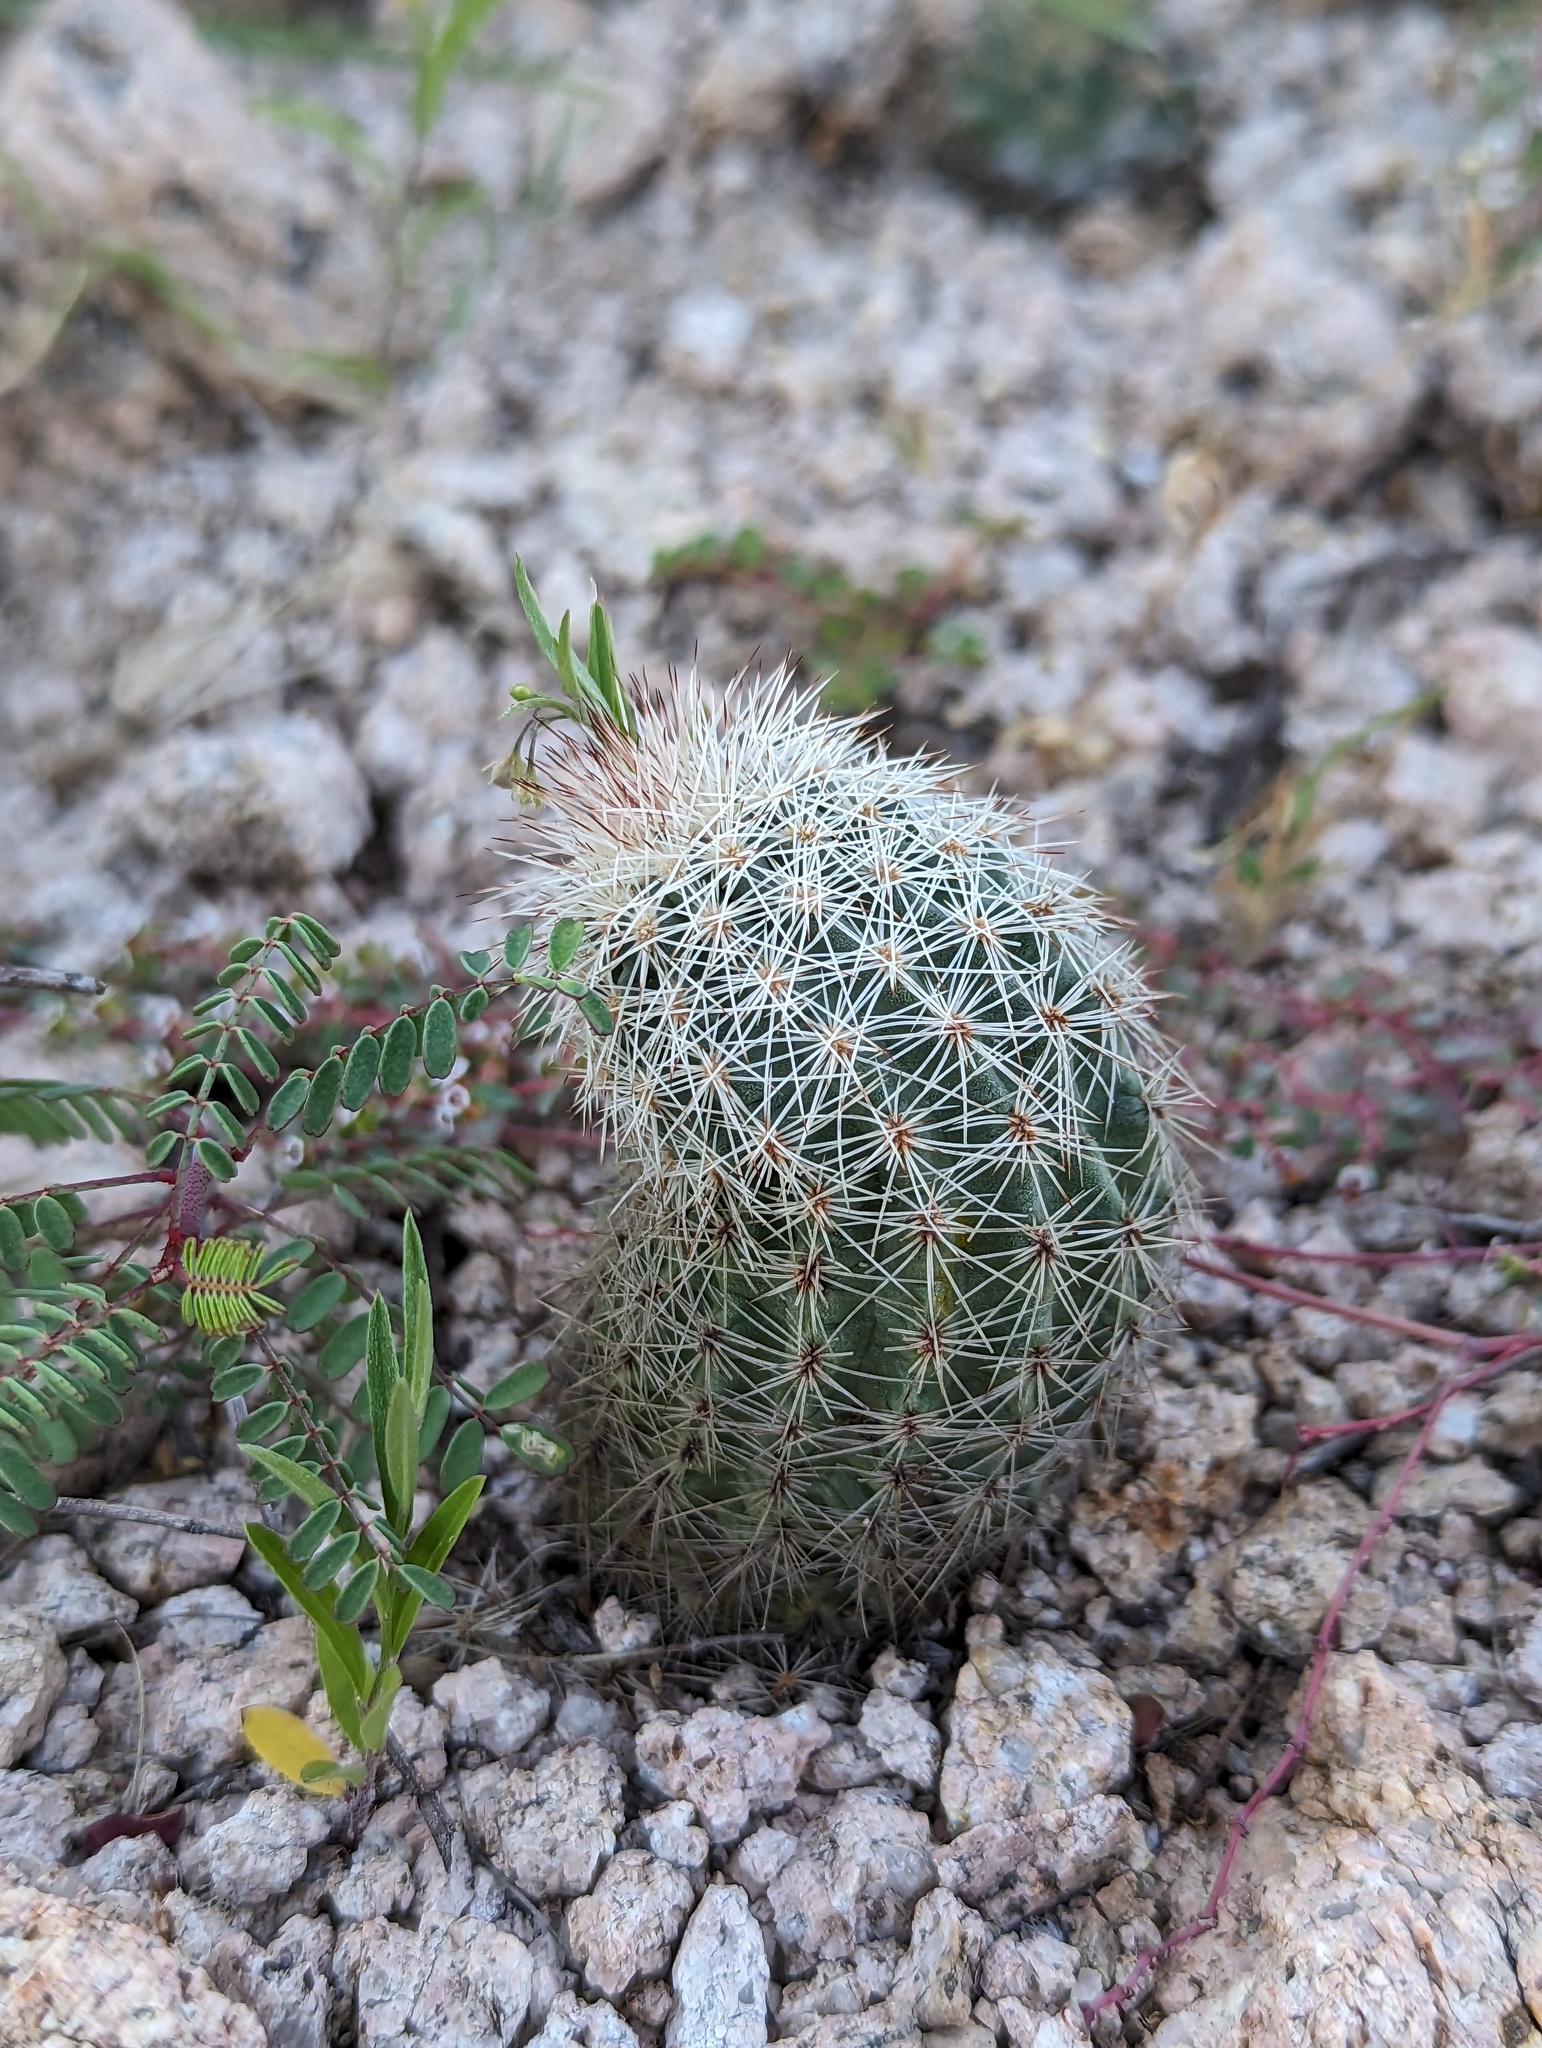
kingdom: Plantae
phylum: Tracheophyta
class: Magnoliopsida
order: Caryophyllales
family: Cactaceae
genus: Echinocereus
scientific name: Echinocereus sciurus
